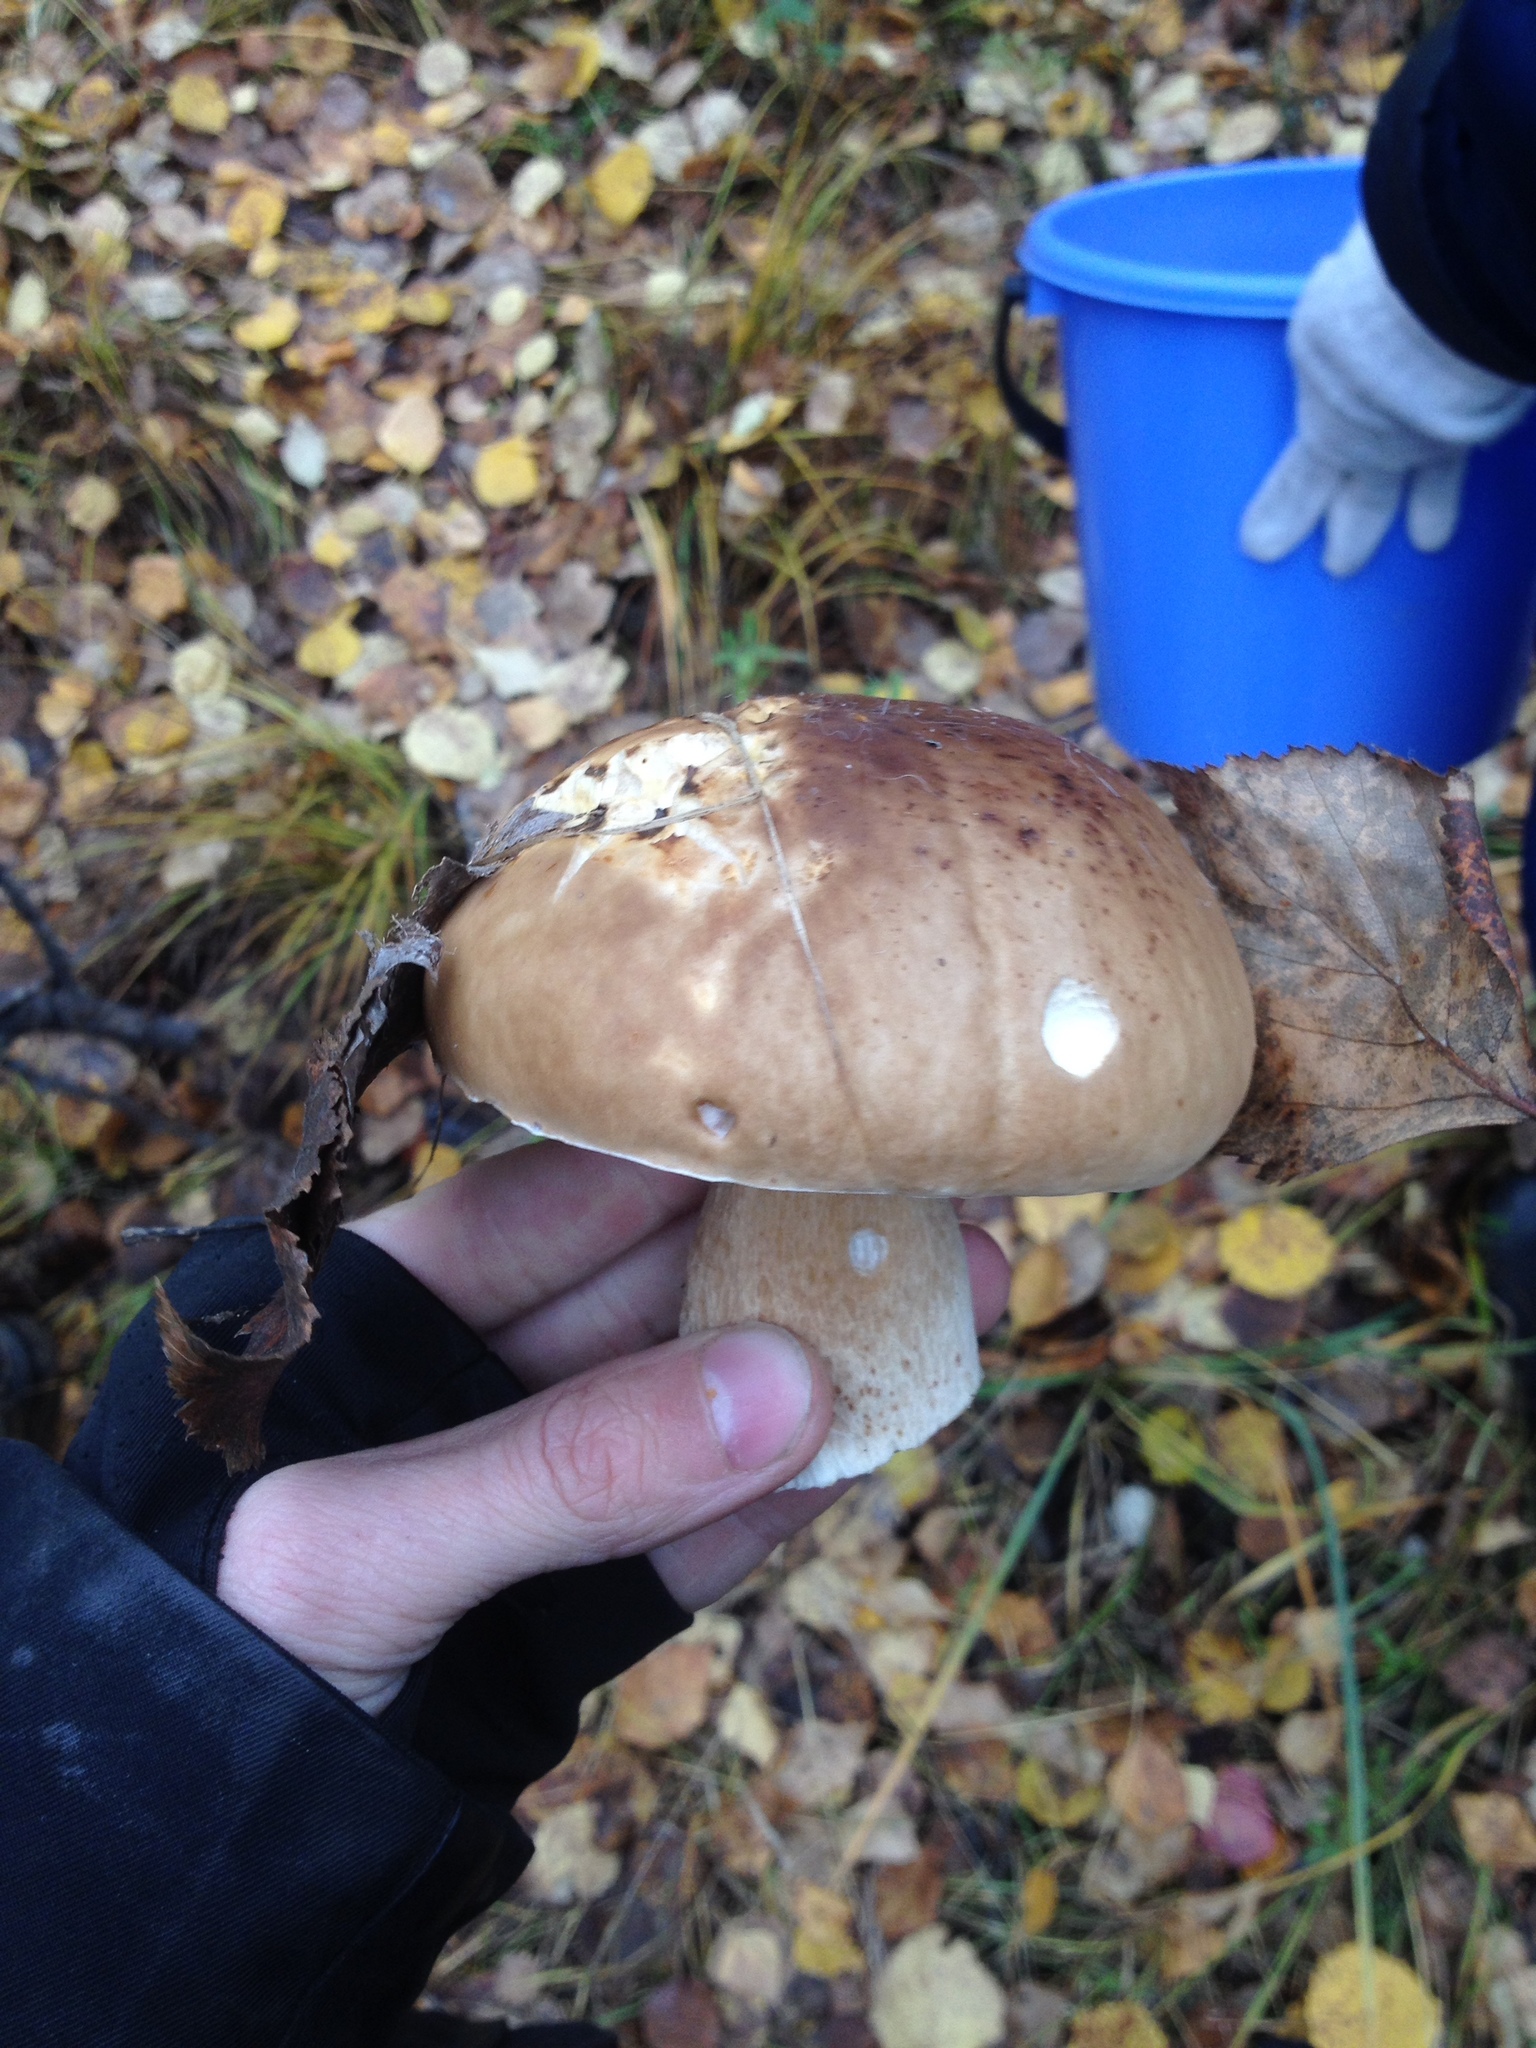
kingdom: Fungi
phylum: Basidiomycota
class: Agaricomycetes
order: Boletales
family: Boletaceae
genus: Boletus
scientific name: Boletus reticulatus
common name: Summer bolete
